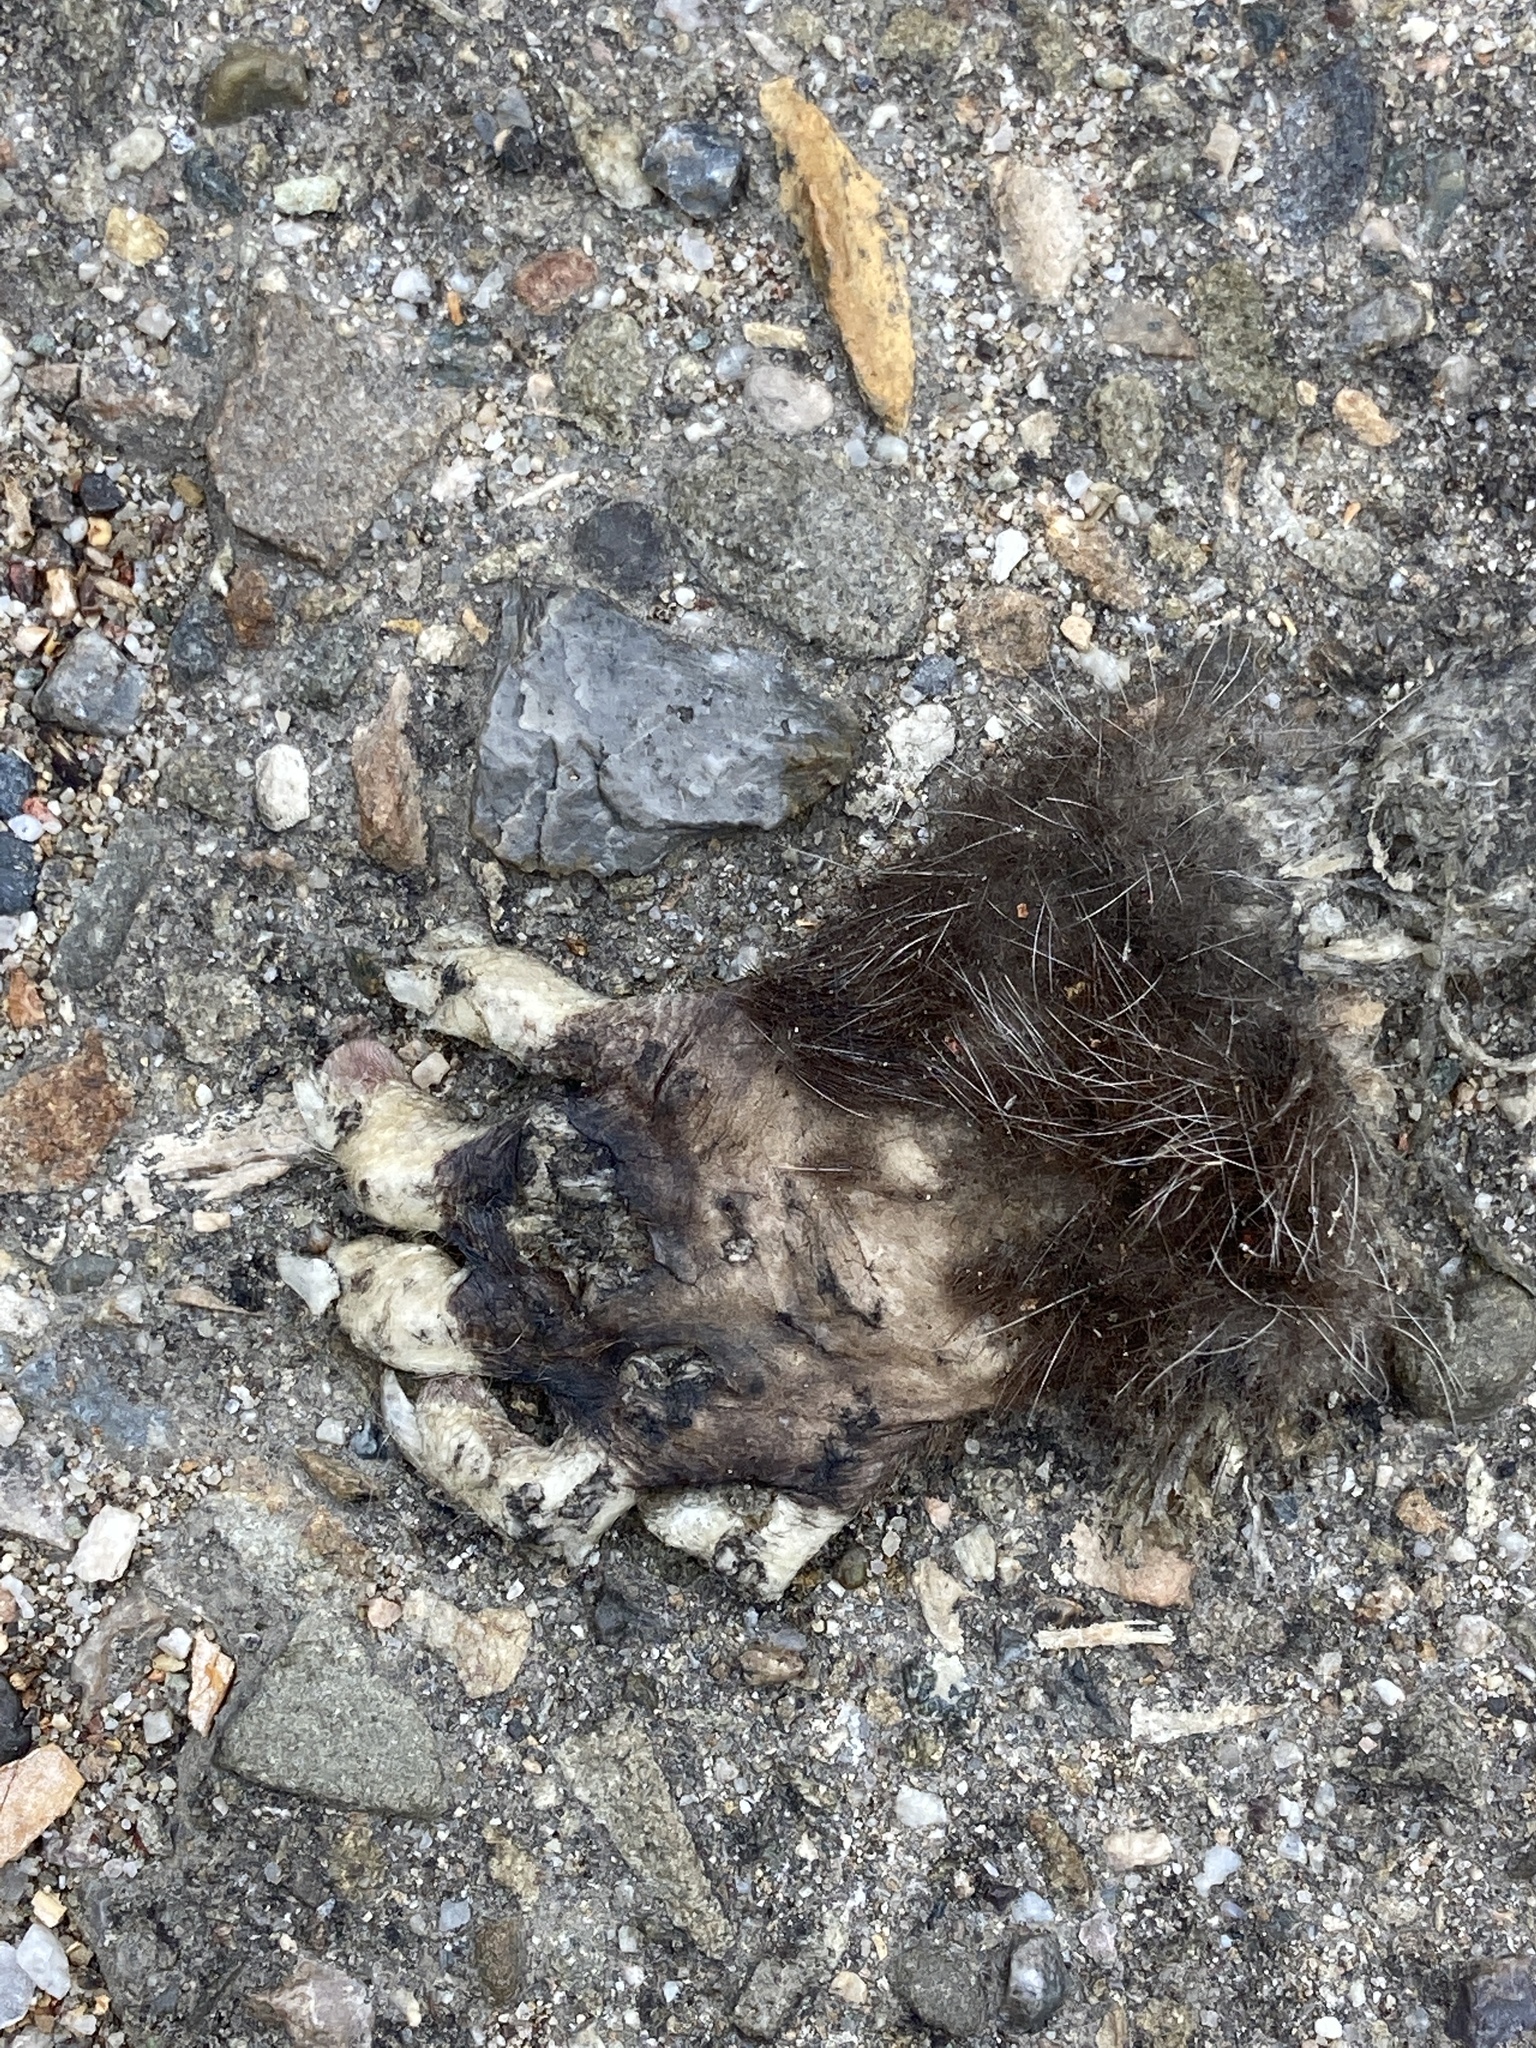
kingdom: Animalia
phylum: Chordata
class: Mammalia
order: Didelphimorphia
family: Didelphidae
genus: Didelphis
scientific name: Didelphis virginiana
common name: Virginia opossum
